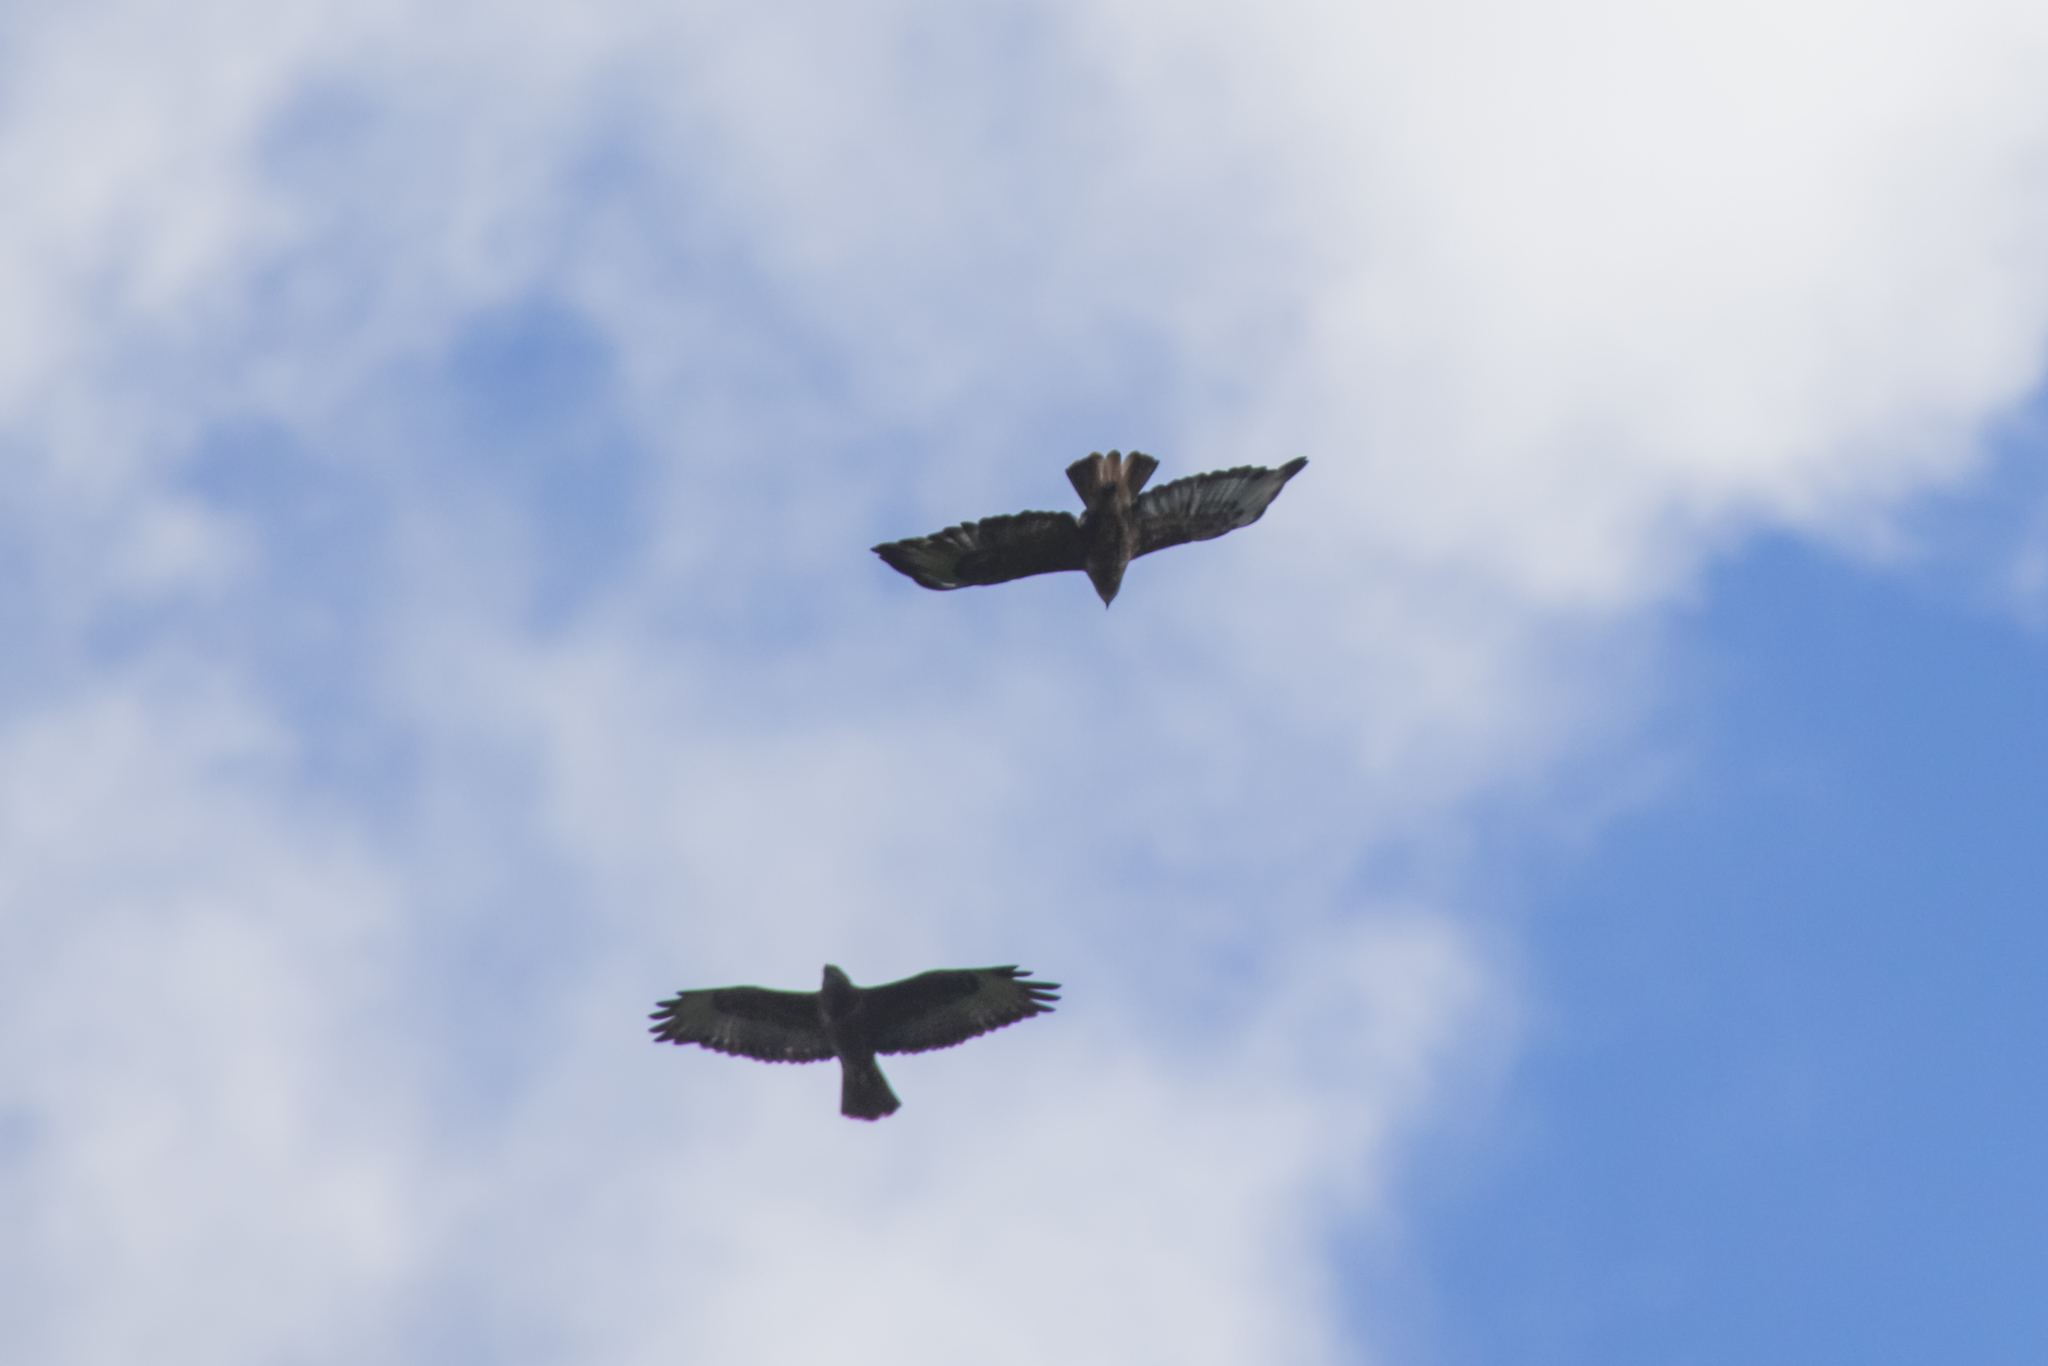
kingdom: Animalia
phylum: Chordata
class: Aves
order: Accipitriformes
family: Accipitridae
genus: Buteo
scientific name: Buteo buteo
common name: Common buzzard
